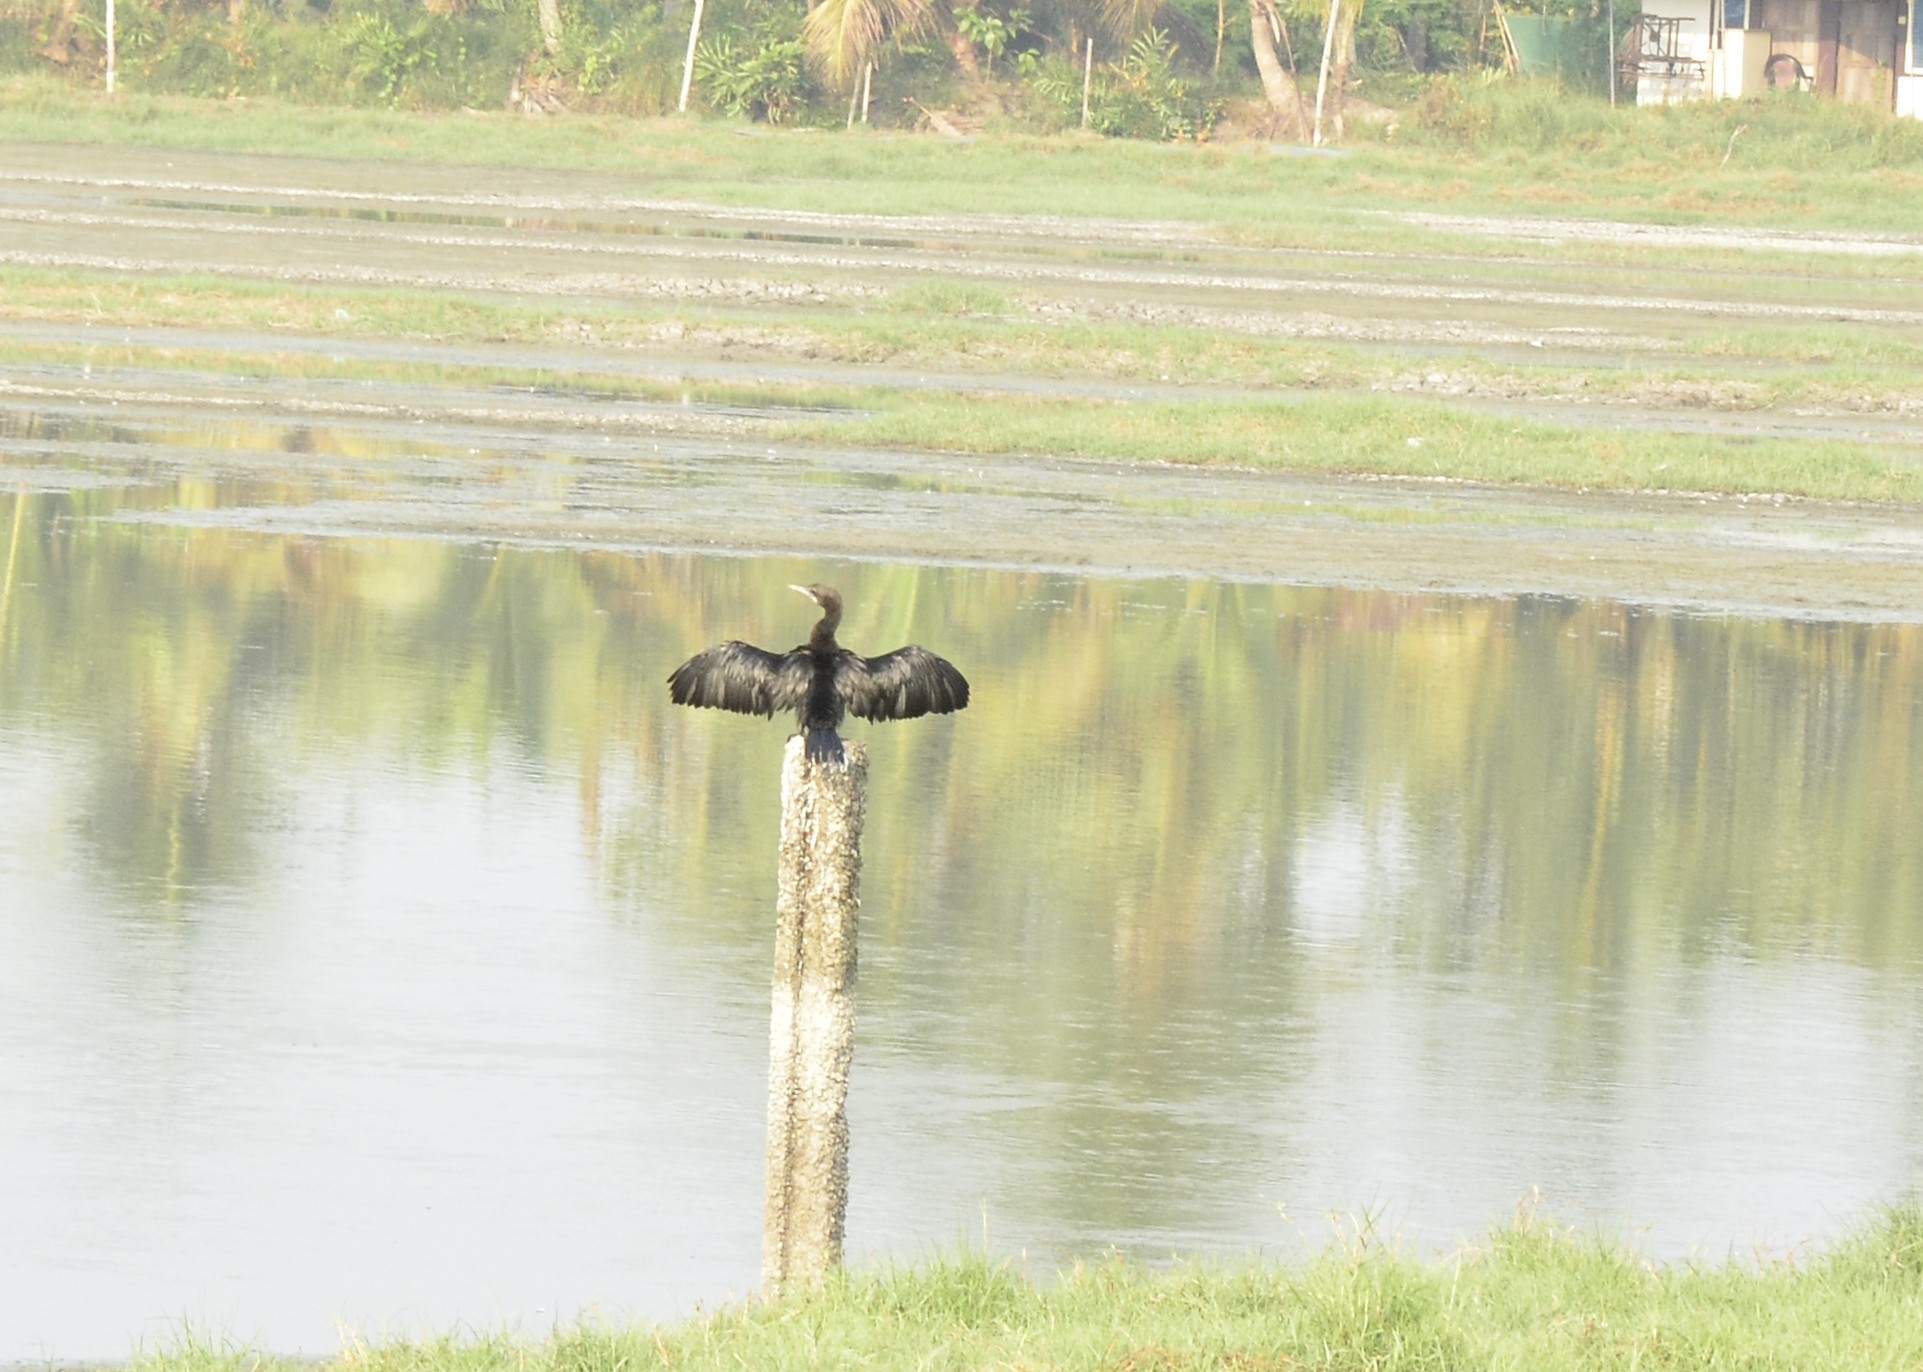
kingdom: Animalia
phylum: Chordata
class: Aves
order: Suliformes
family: Phalacrocoracidae
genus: Microcarbo
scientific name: Microcarbo niger
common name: Little cormorant
